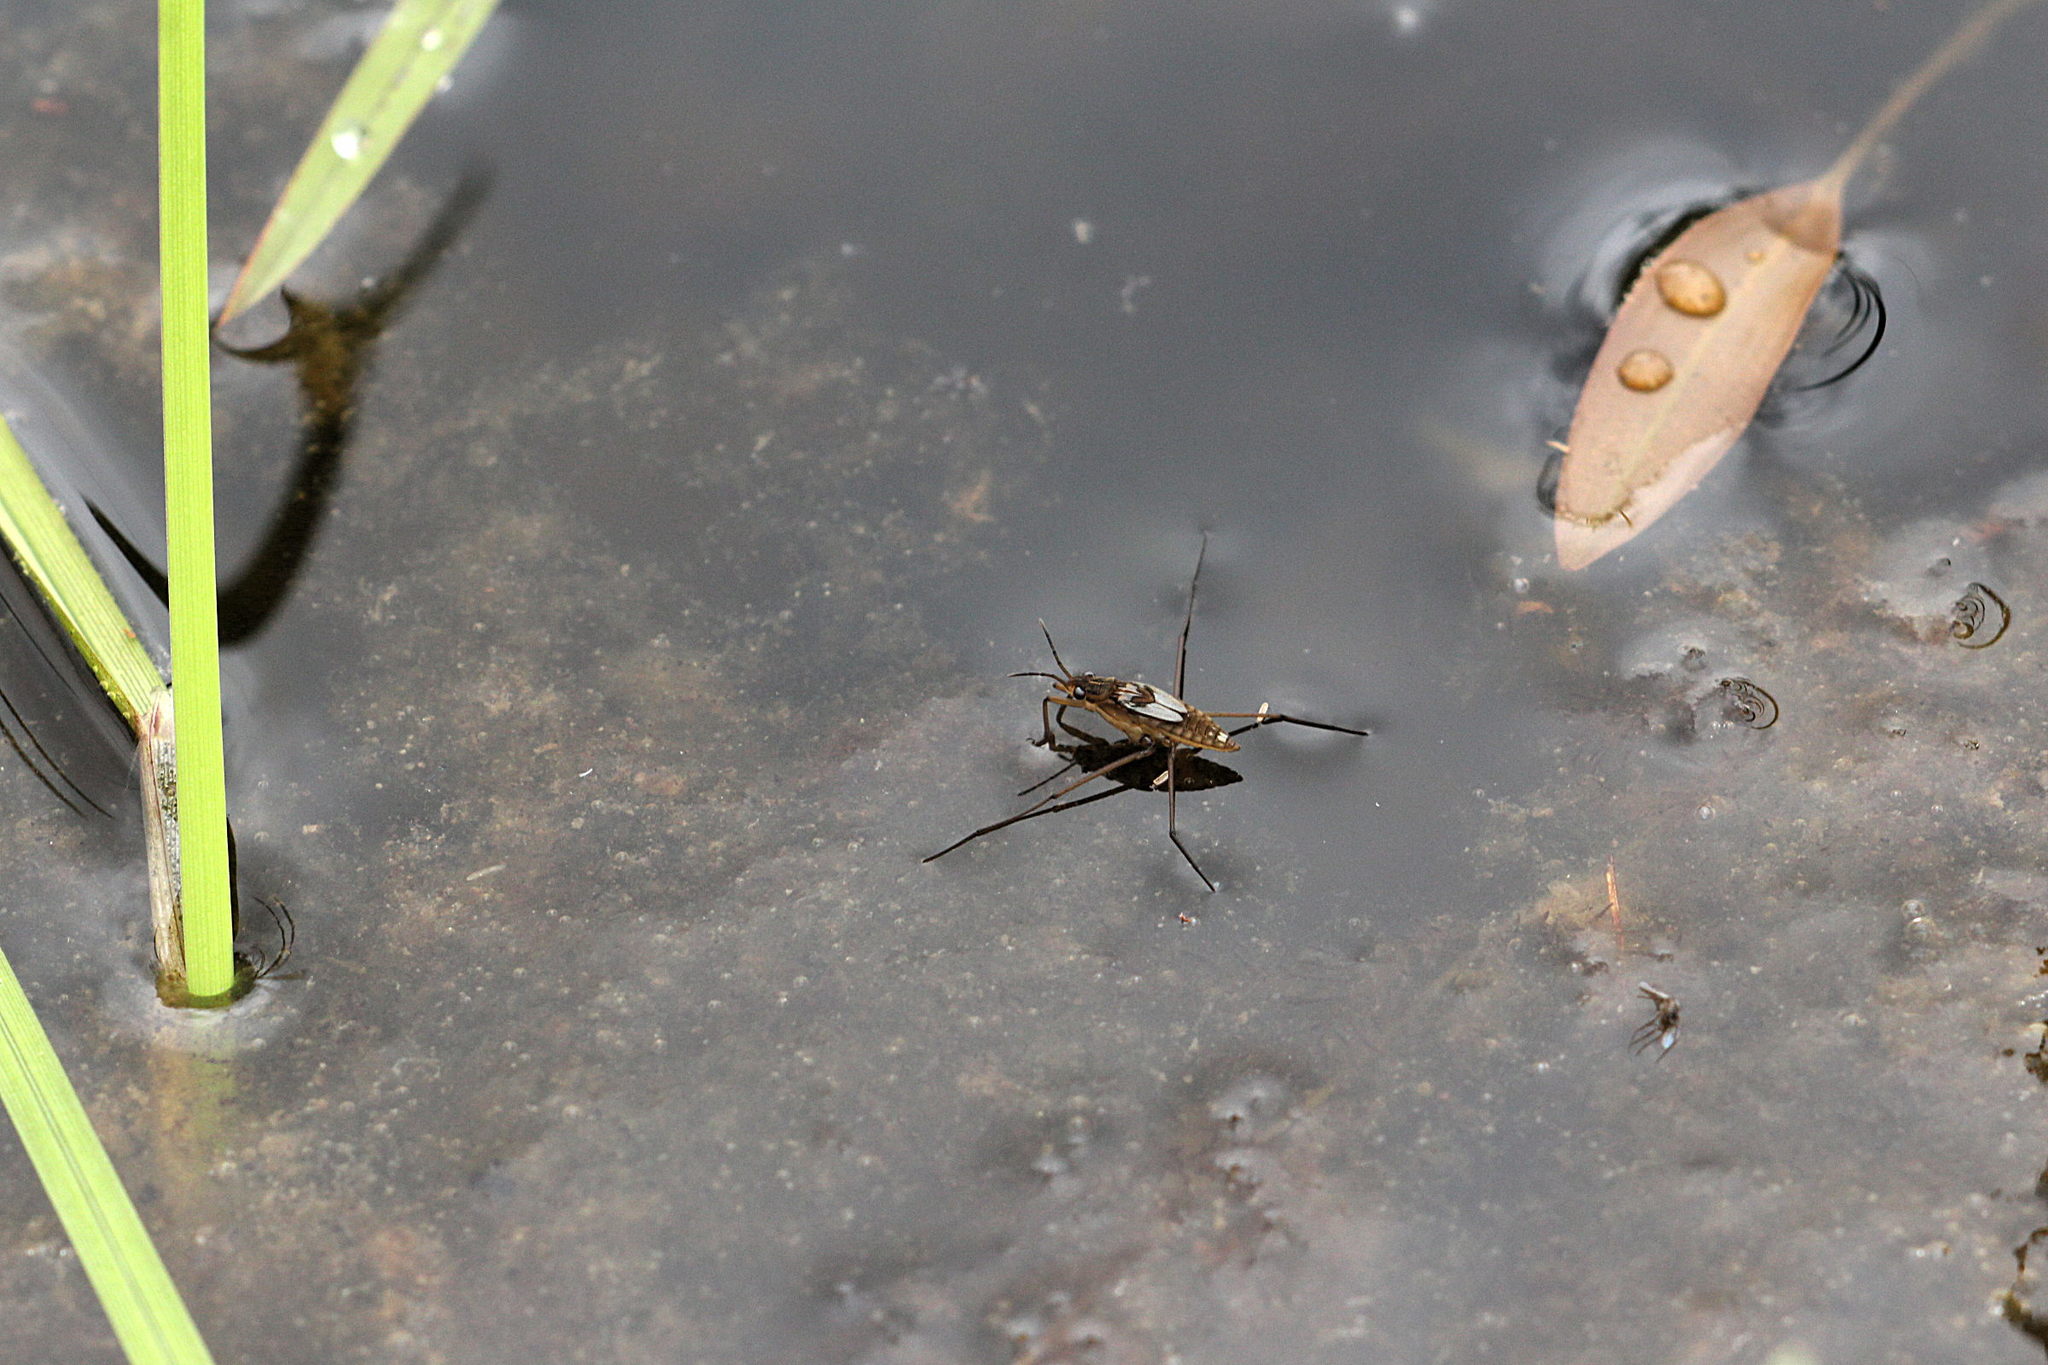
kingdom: Animalia
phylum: Arthropoda
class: Insecta
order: Diptera
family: Dolichopodidae
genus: Poecilobothrus
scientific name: Poecilobothrus nobilitatus
